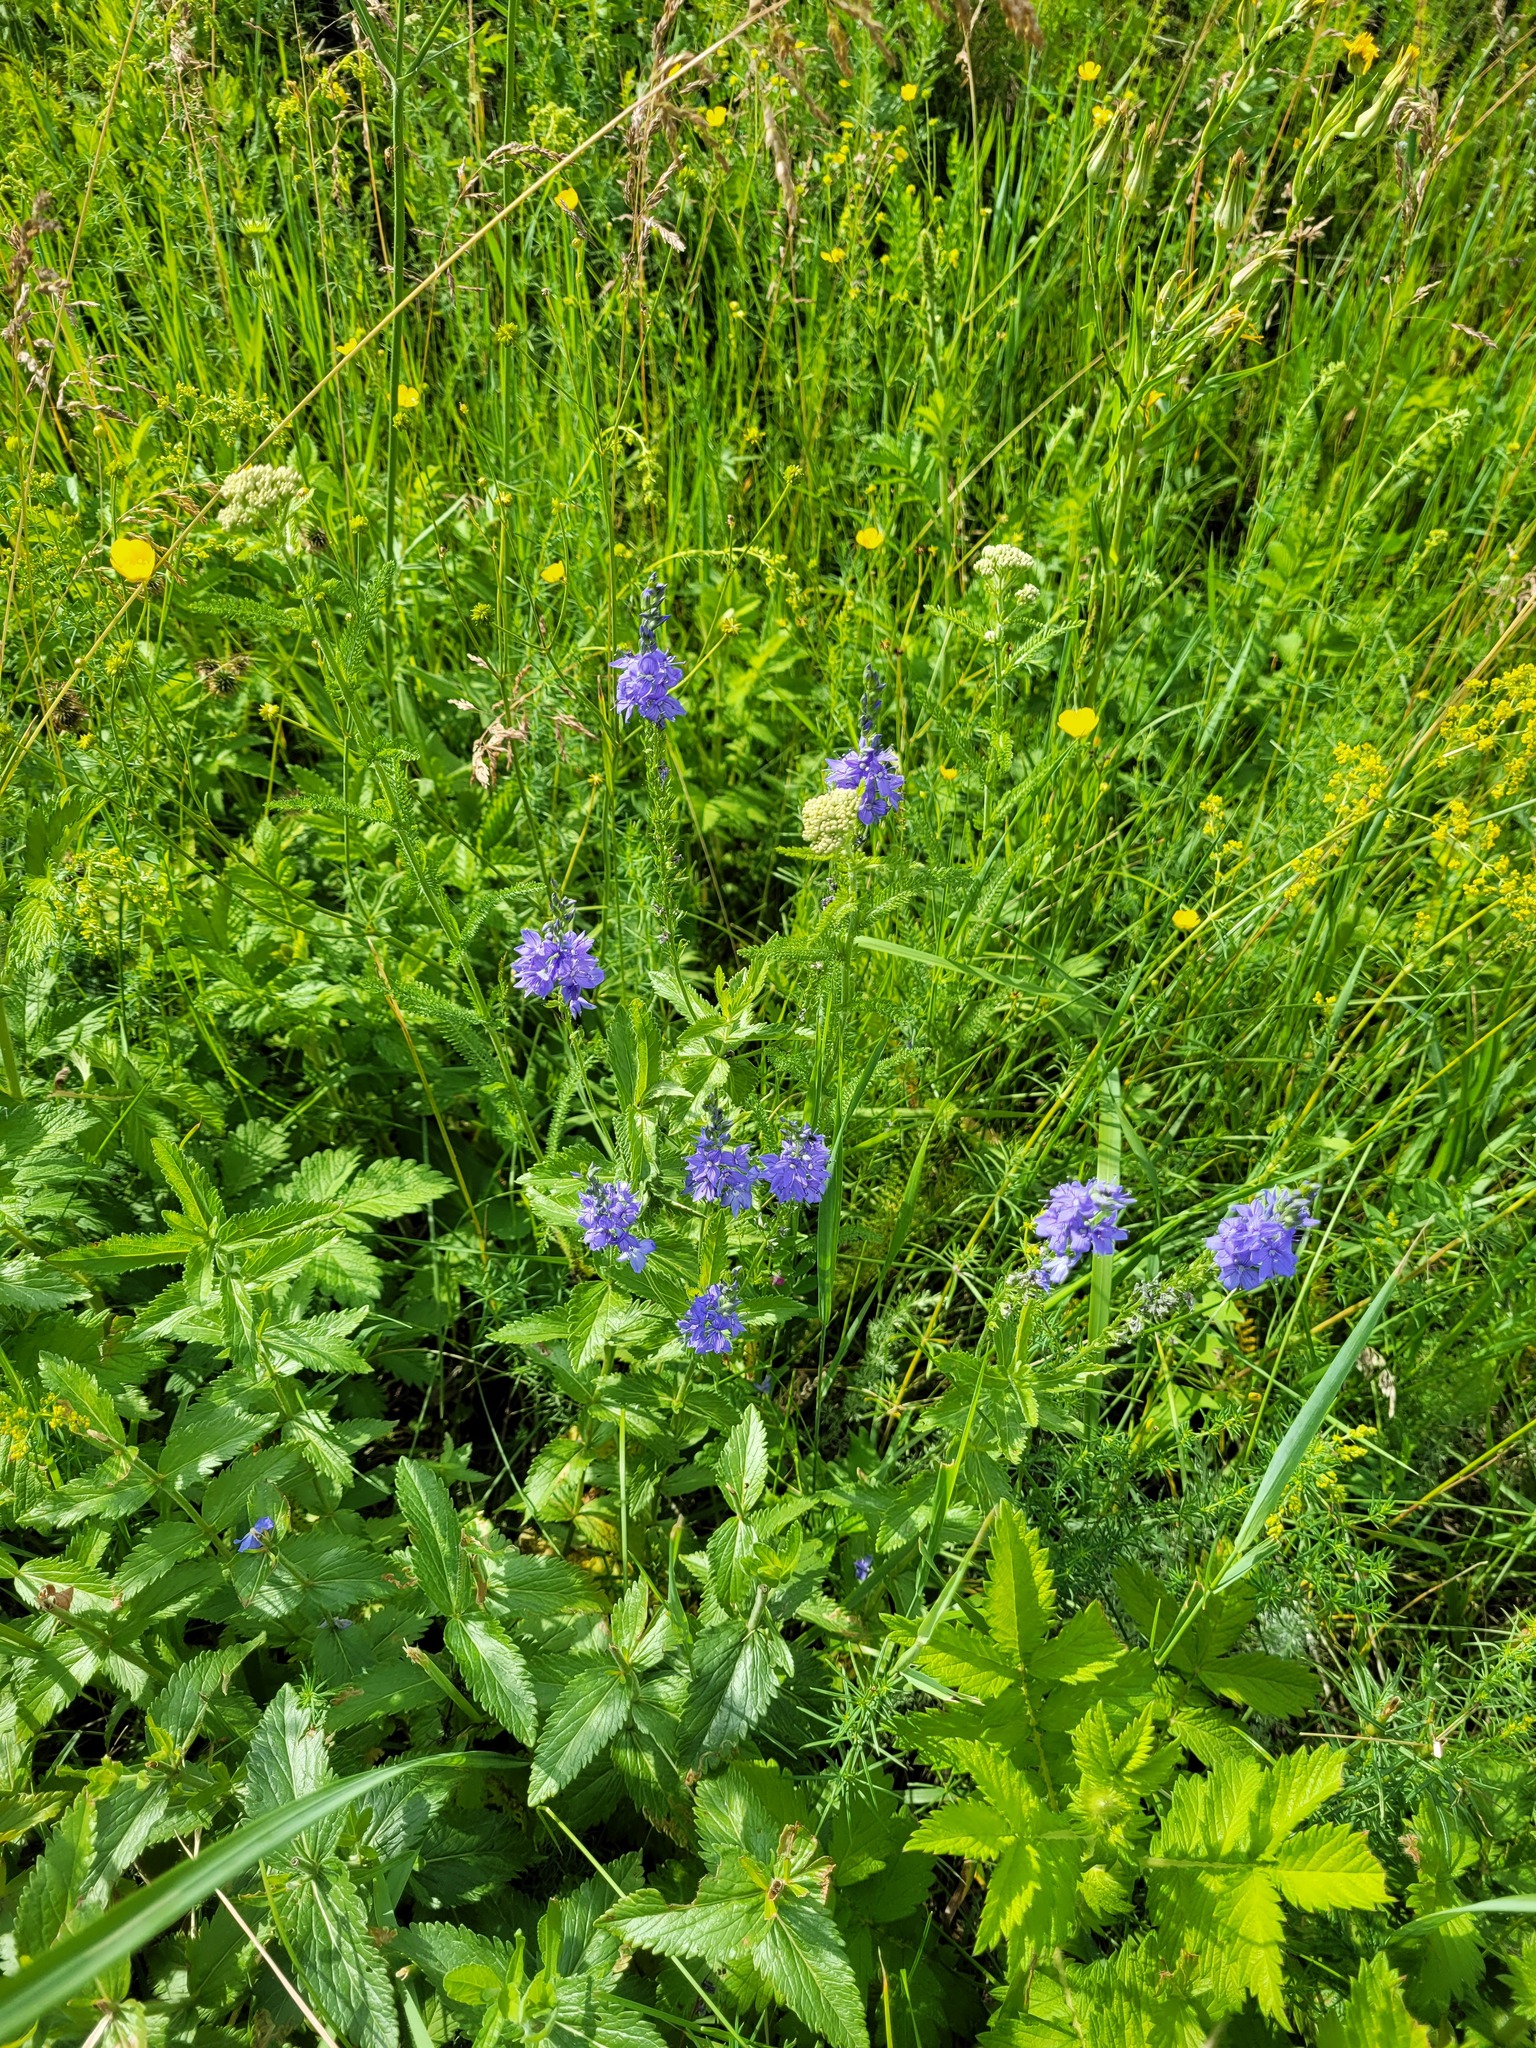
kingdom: Plantae
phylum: Tracheophyta
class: Magnoliopsida
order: Lamiales
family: Plantaginaceae
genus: Veronica
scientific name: Veronica teucrium
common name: Large speedwell
